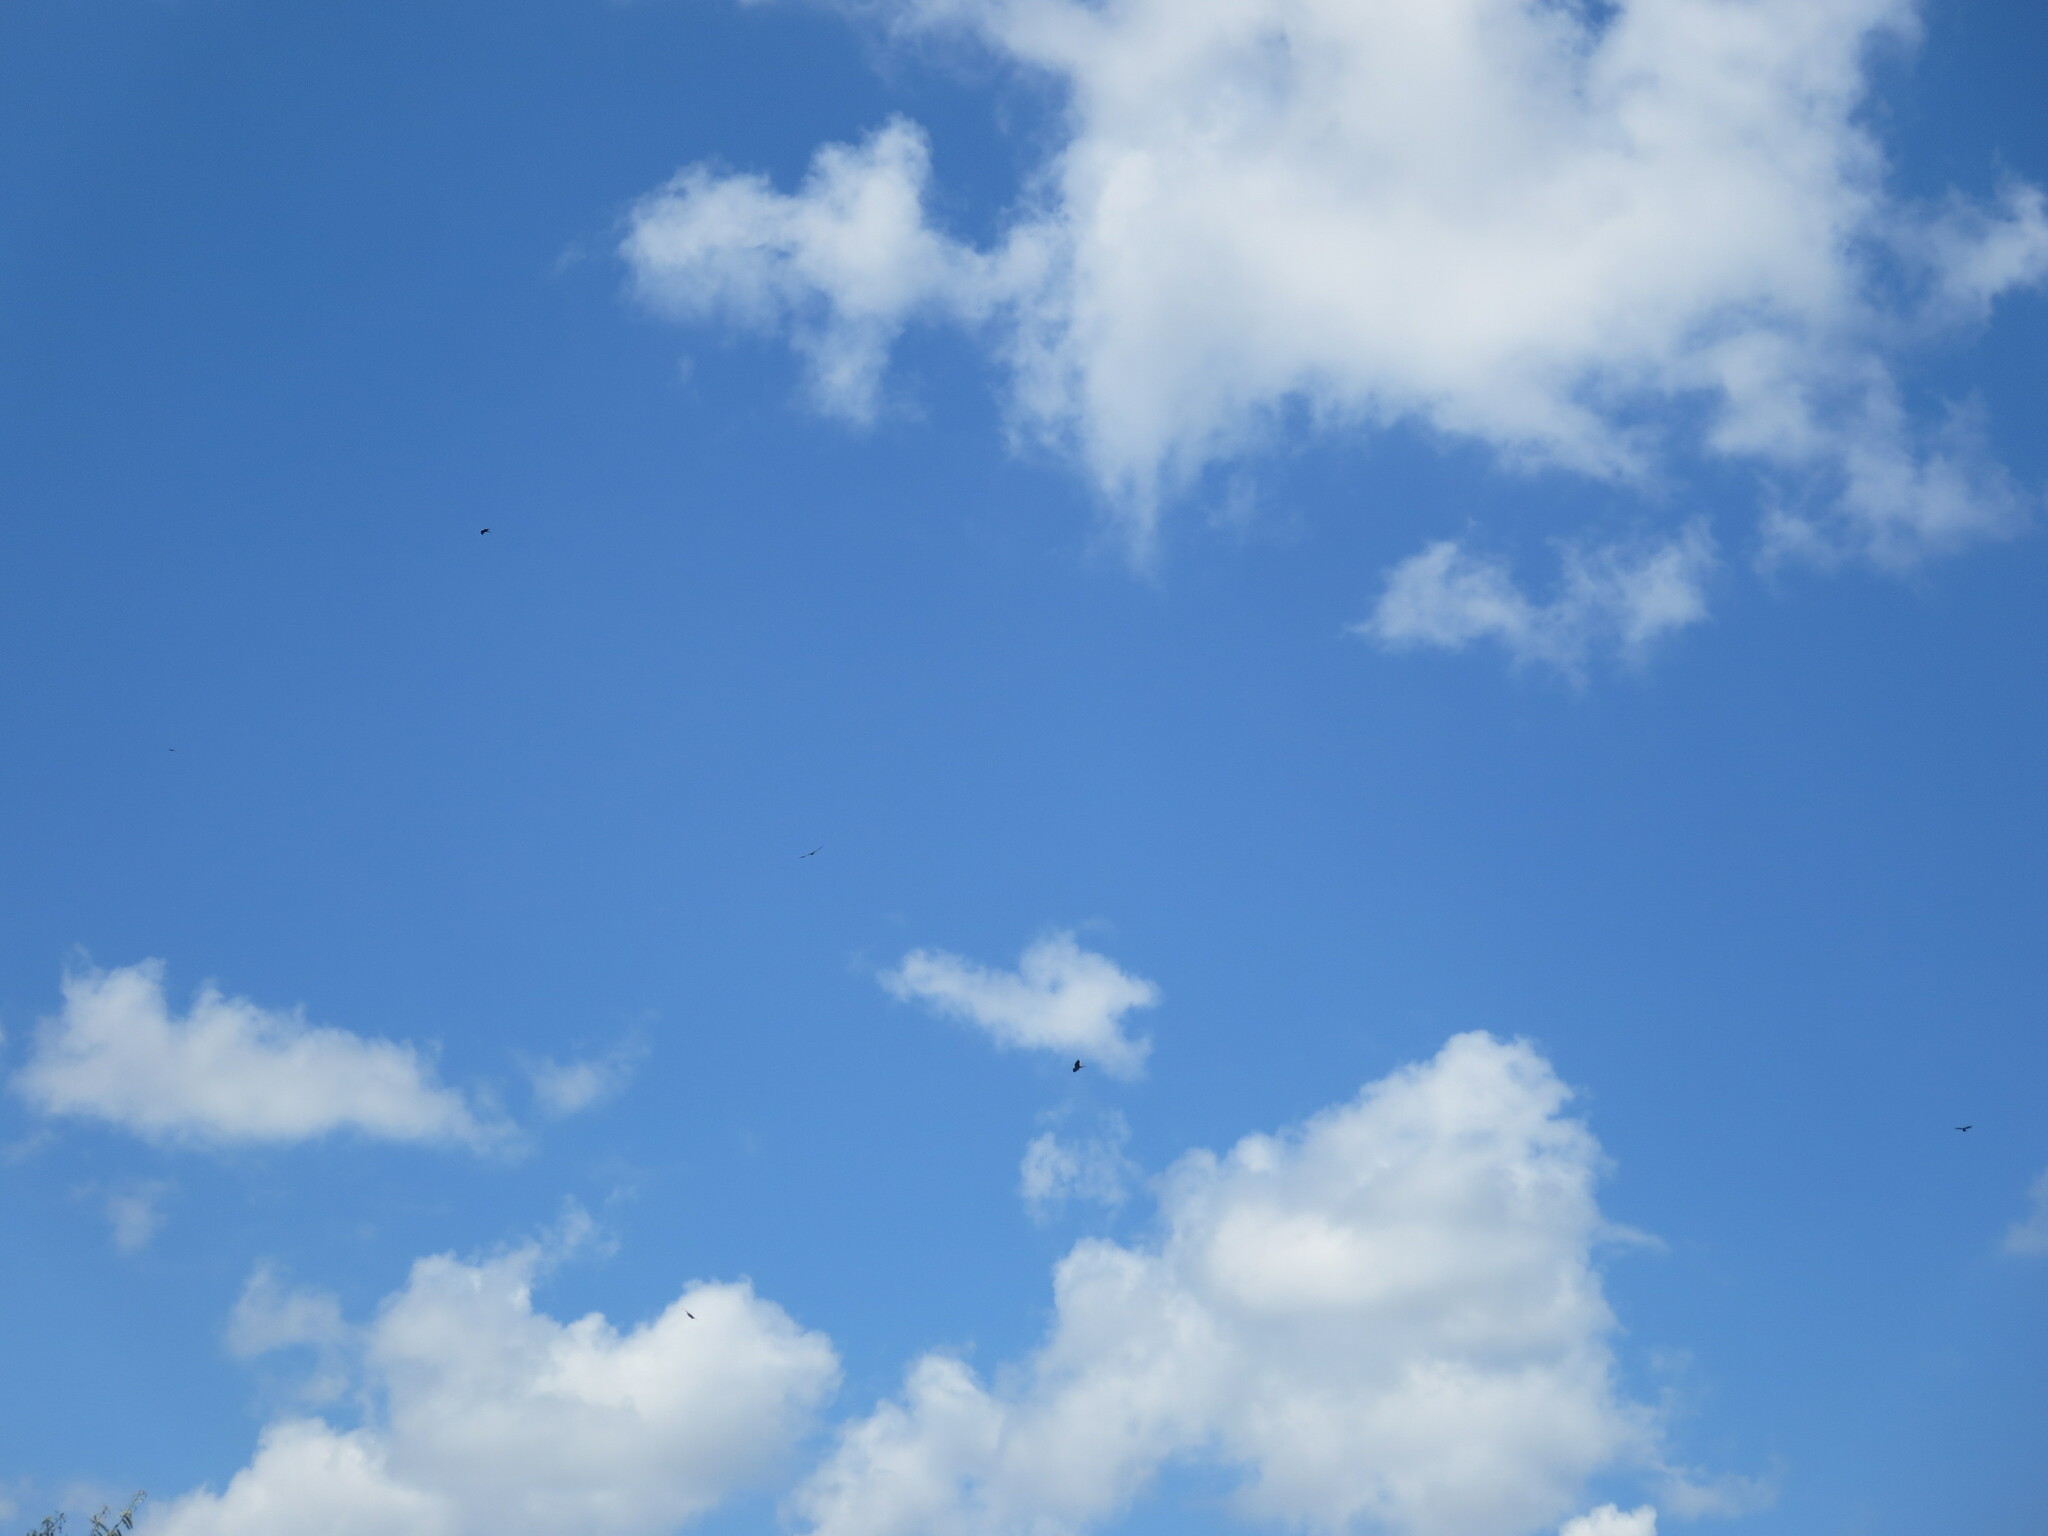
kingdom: Animalia
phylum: Chordata
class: Aves
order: Accipitriformes
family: Accipitridae
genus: Ictinia
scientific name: Ictinia mississippiensis
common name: Mississippi kite
